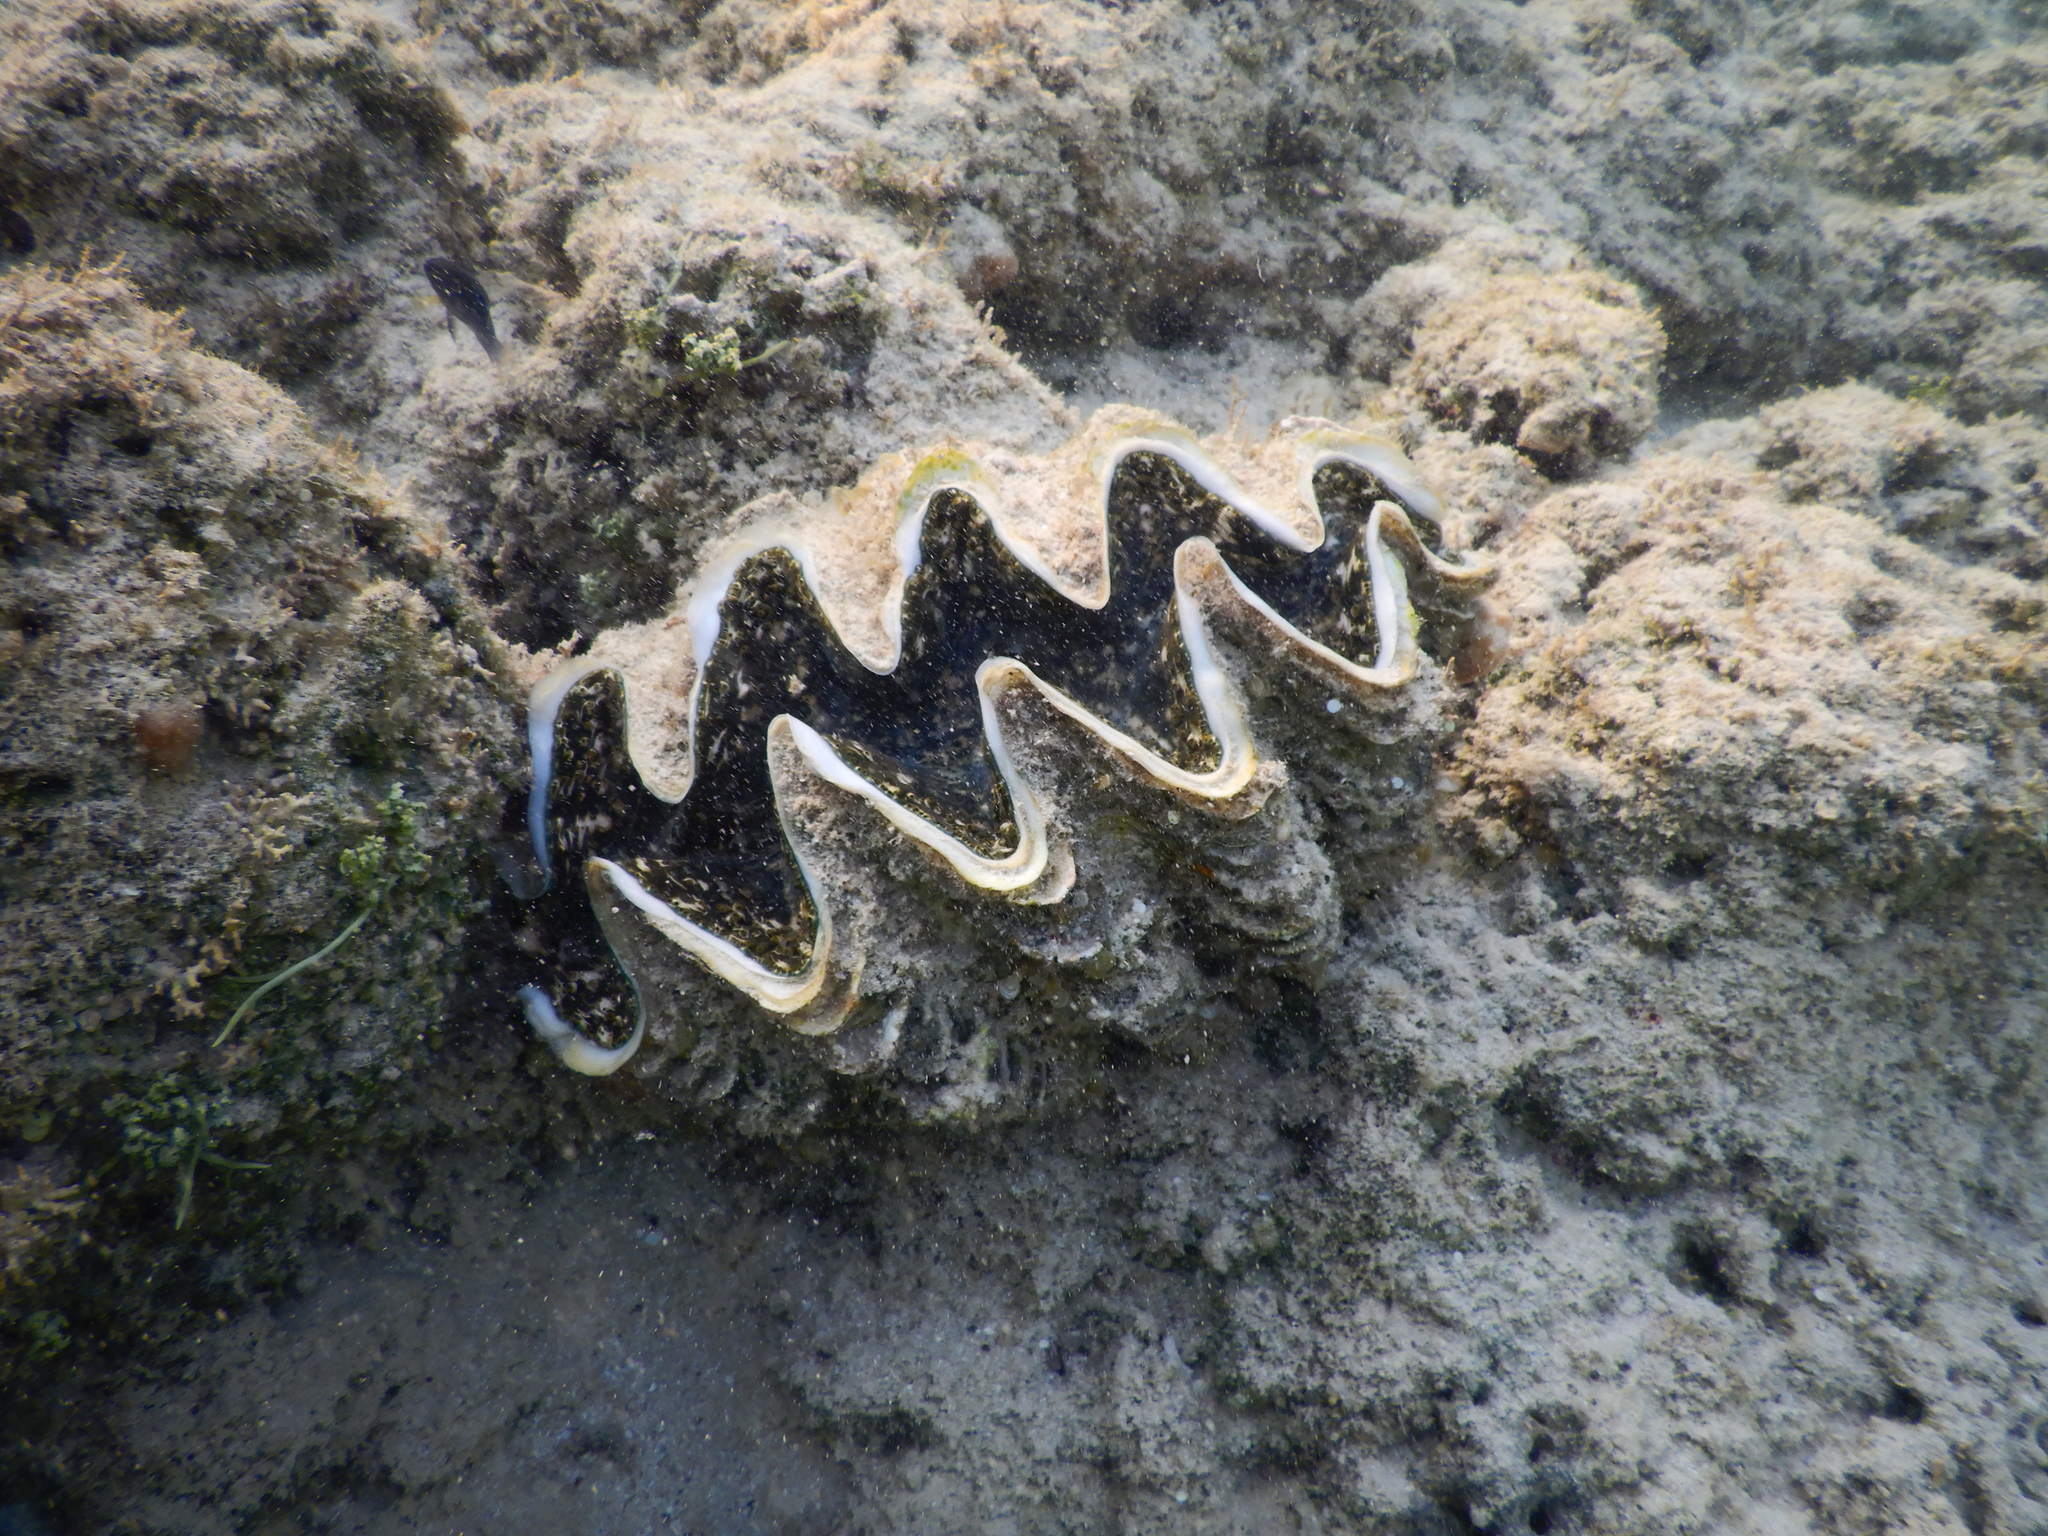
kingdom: Animalia
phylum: Mollusca
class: Bivalvia
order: Cardiida
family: Cardiidae
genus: Tridacna
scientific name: Tridacna squamosina
